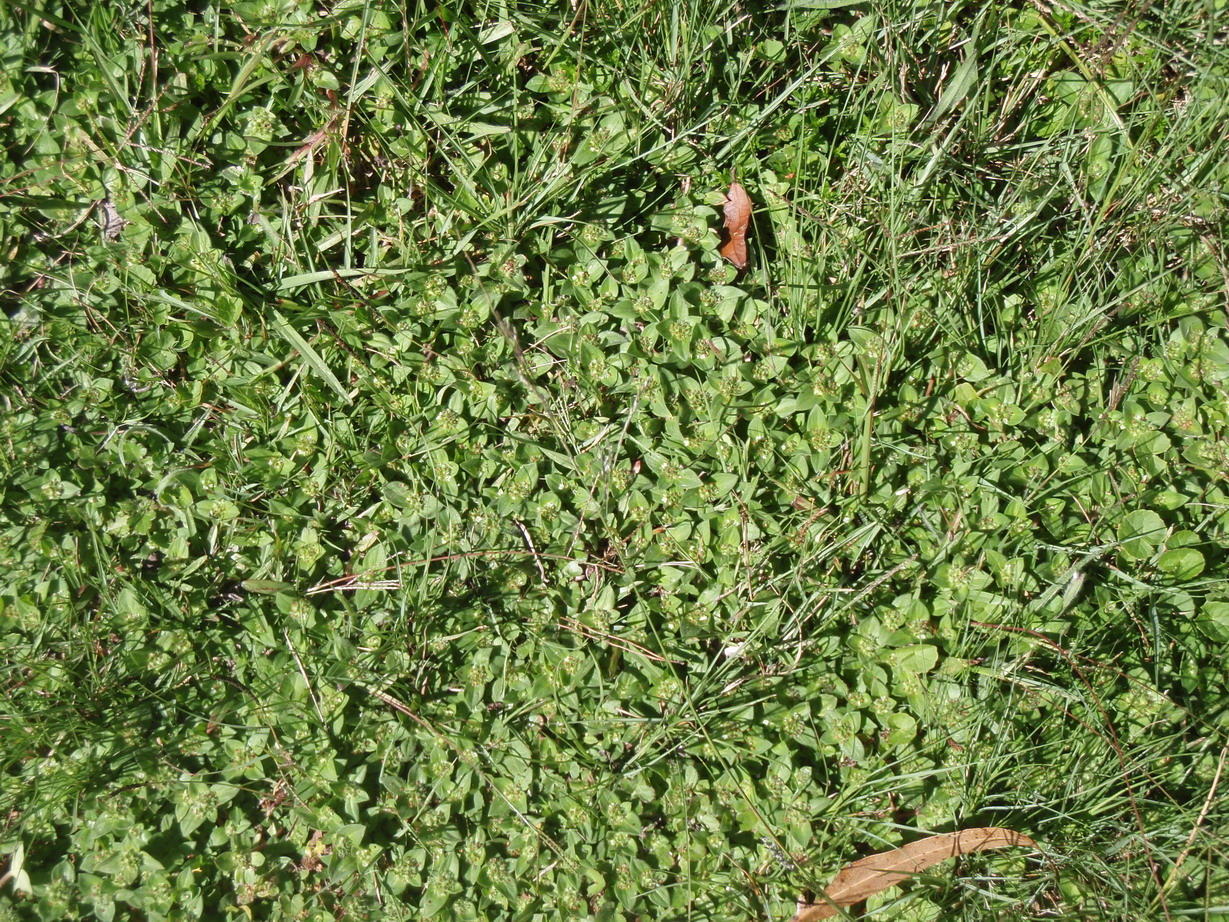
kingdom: Plantae
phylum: Tracheophyta
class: Magnoliopsida
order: Gentianales
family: Rubiaceae
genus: Richardia
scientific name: Richardia brasiliensis
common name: Tropical mexican clover
